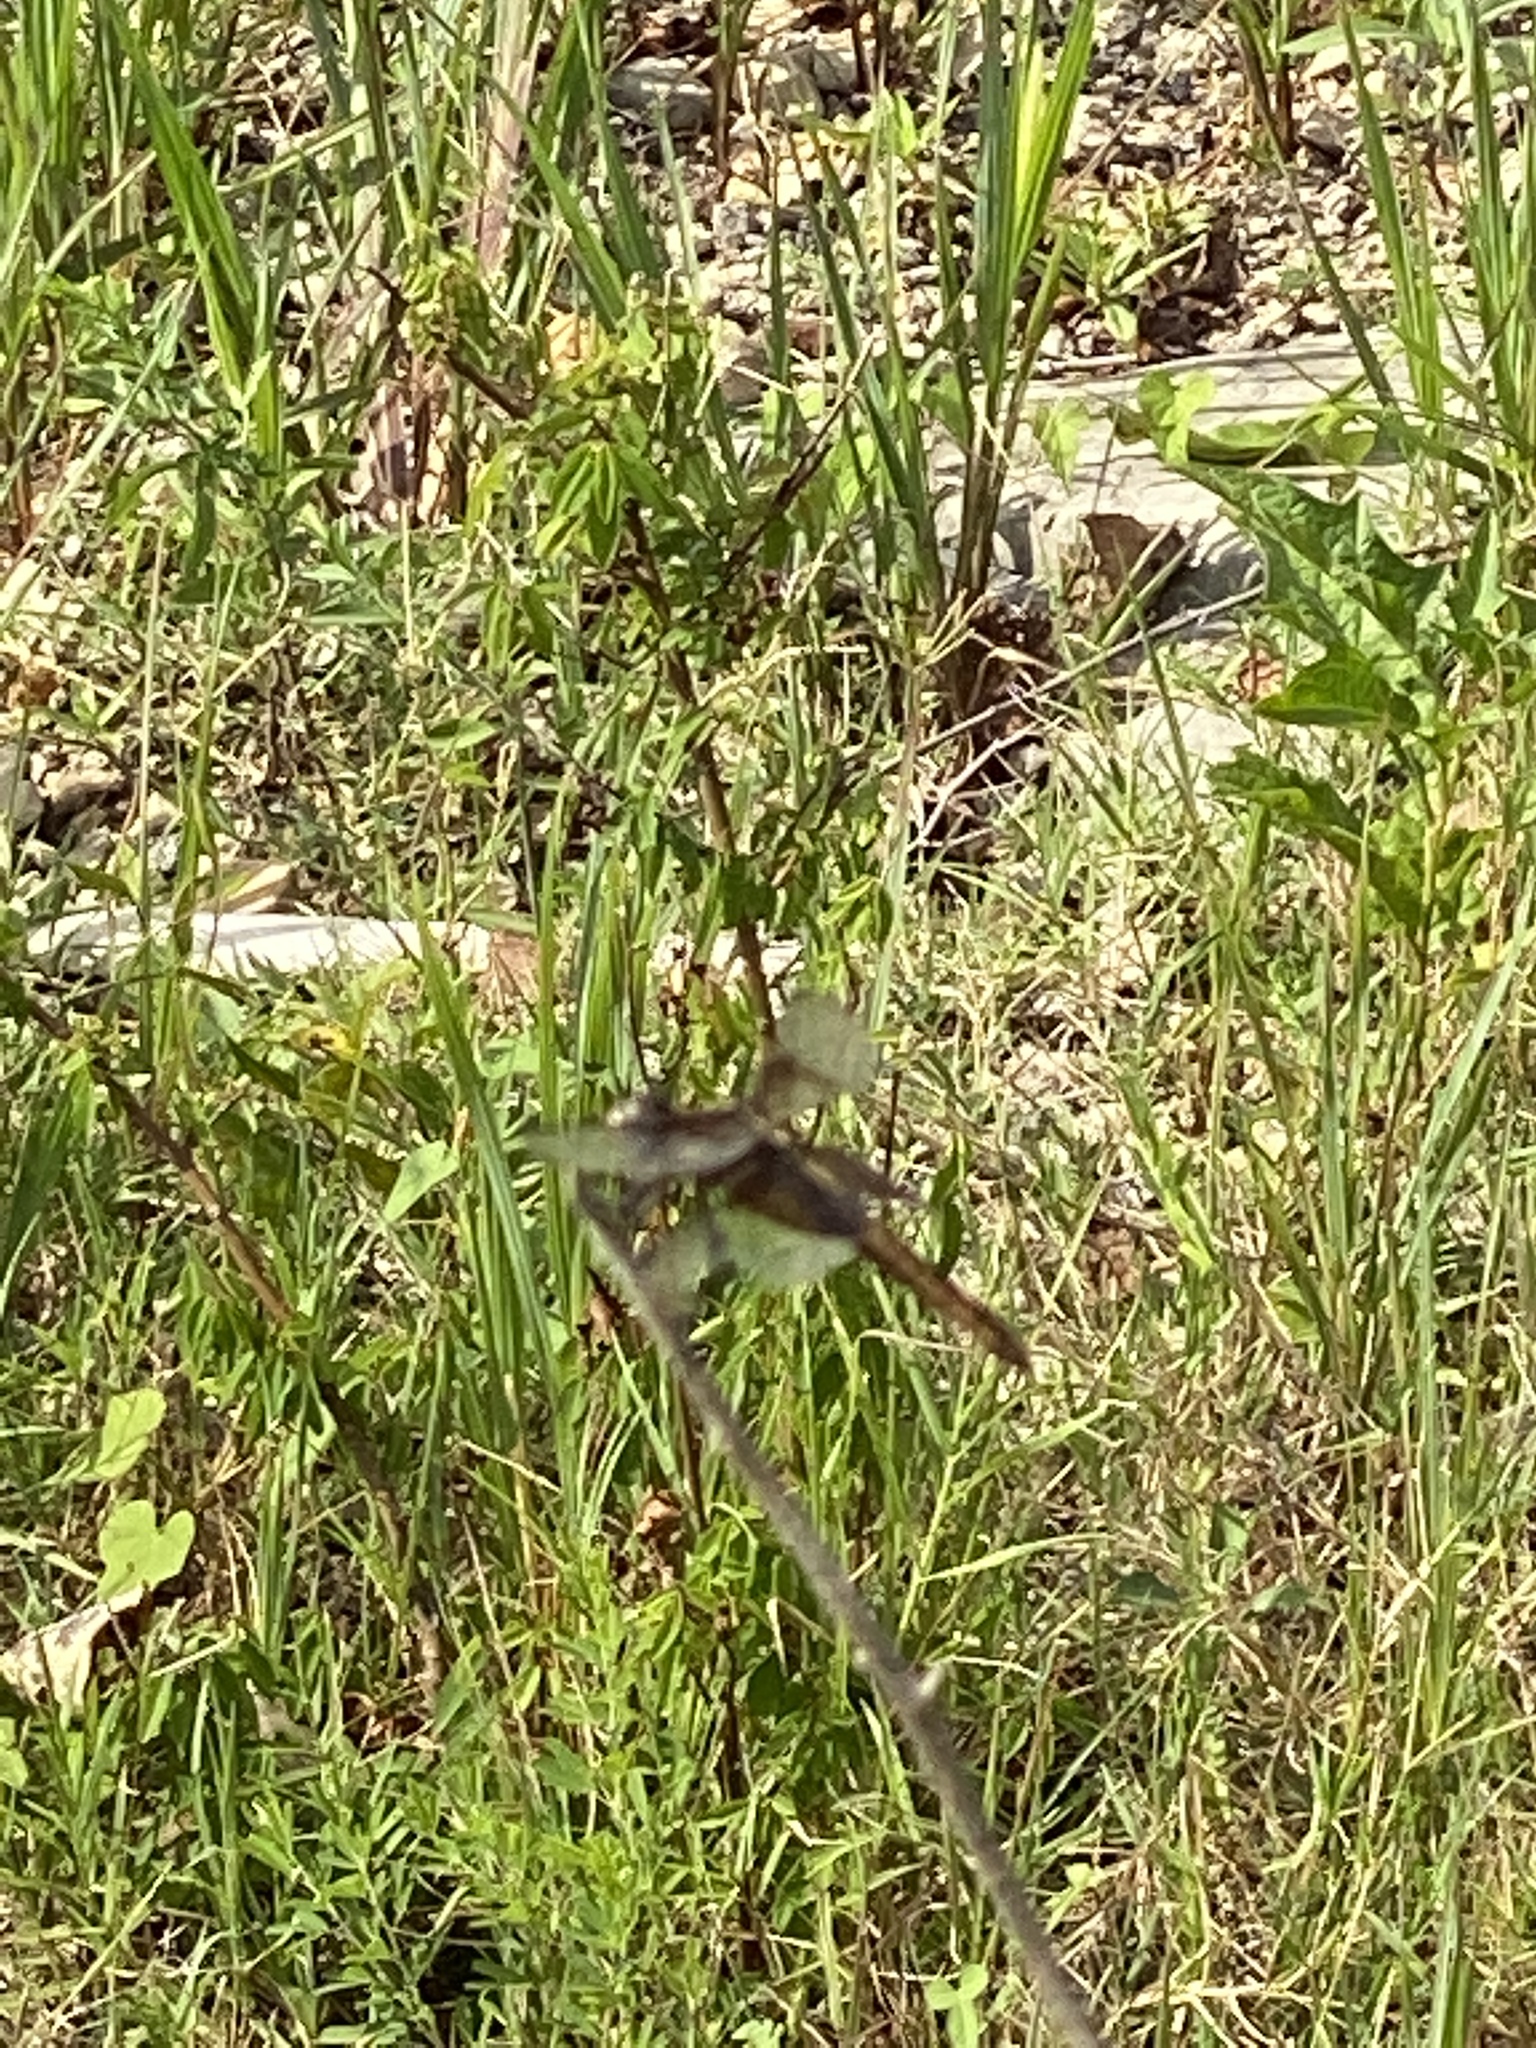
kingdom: Animalia
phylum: Arthropoda
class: Insecta
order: Odonata
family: Libellulidae
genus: Libellula
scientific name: Libellula luctuosa
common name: Widow skimmer
